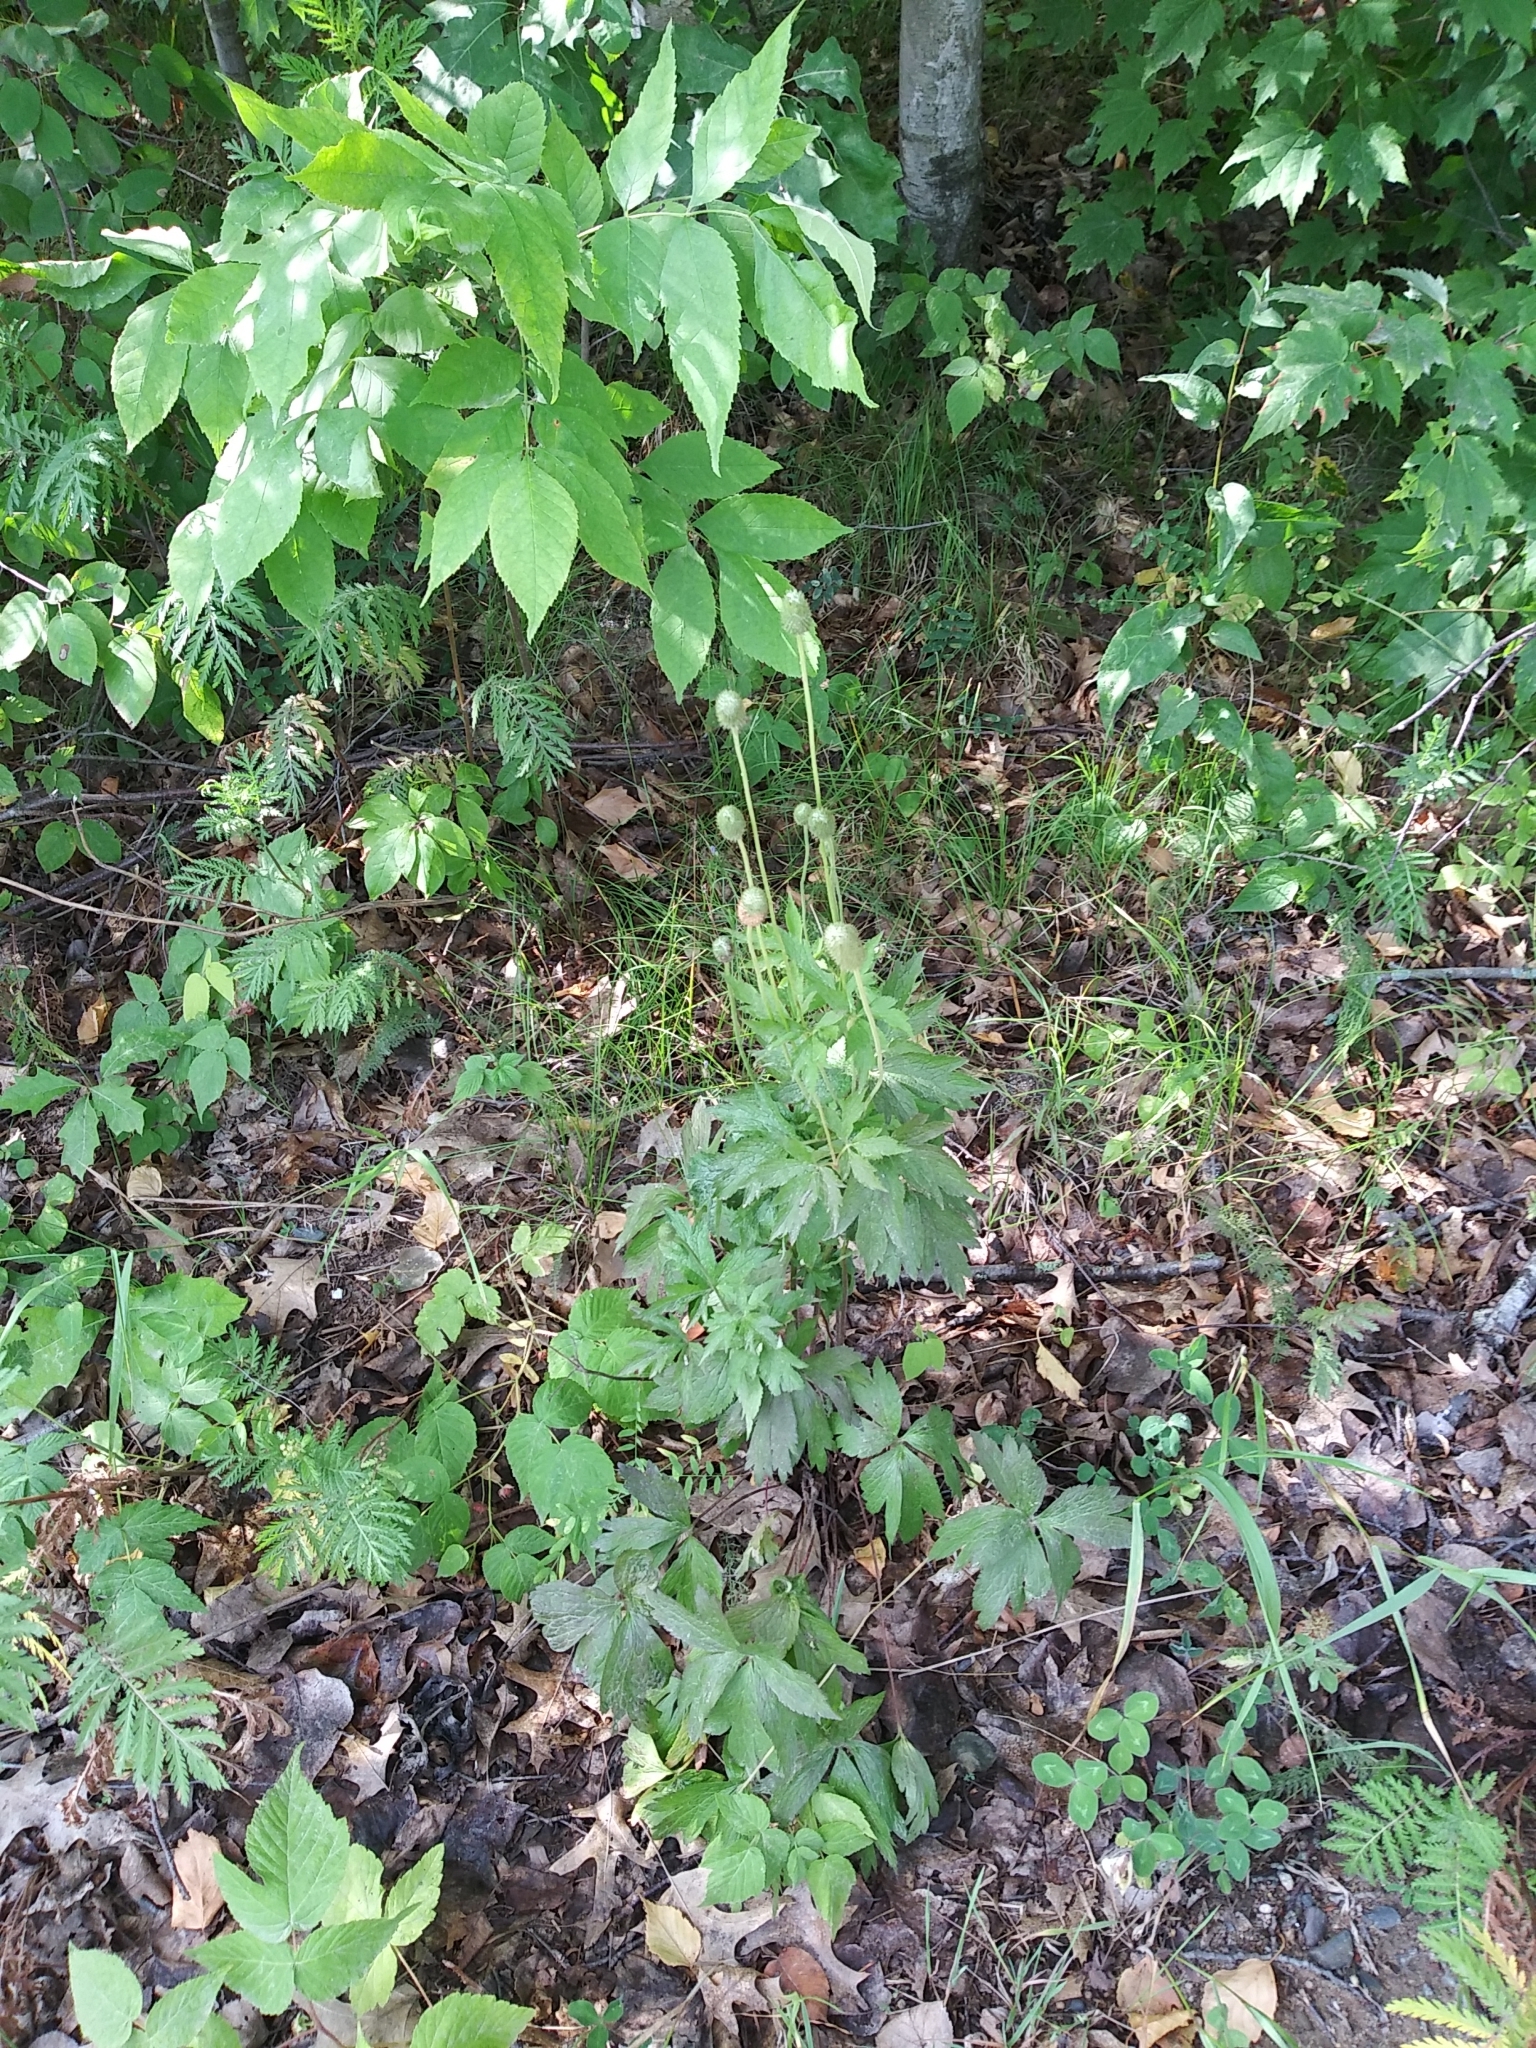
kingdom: Plantae
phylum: Tracheophyta
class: Magnoliopsida
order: Ranunculales
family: Ranunculaceae
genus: Anemone
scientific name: Anemone virginiana
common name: Tall anemone
